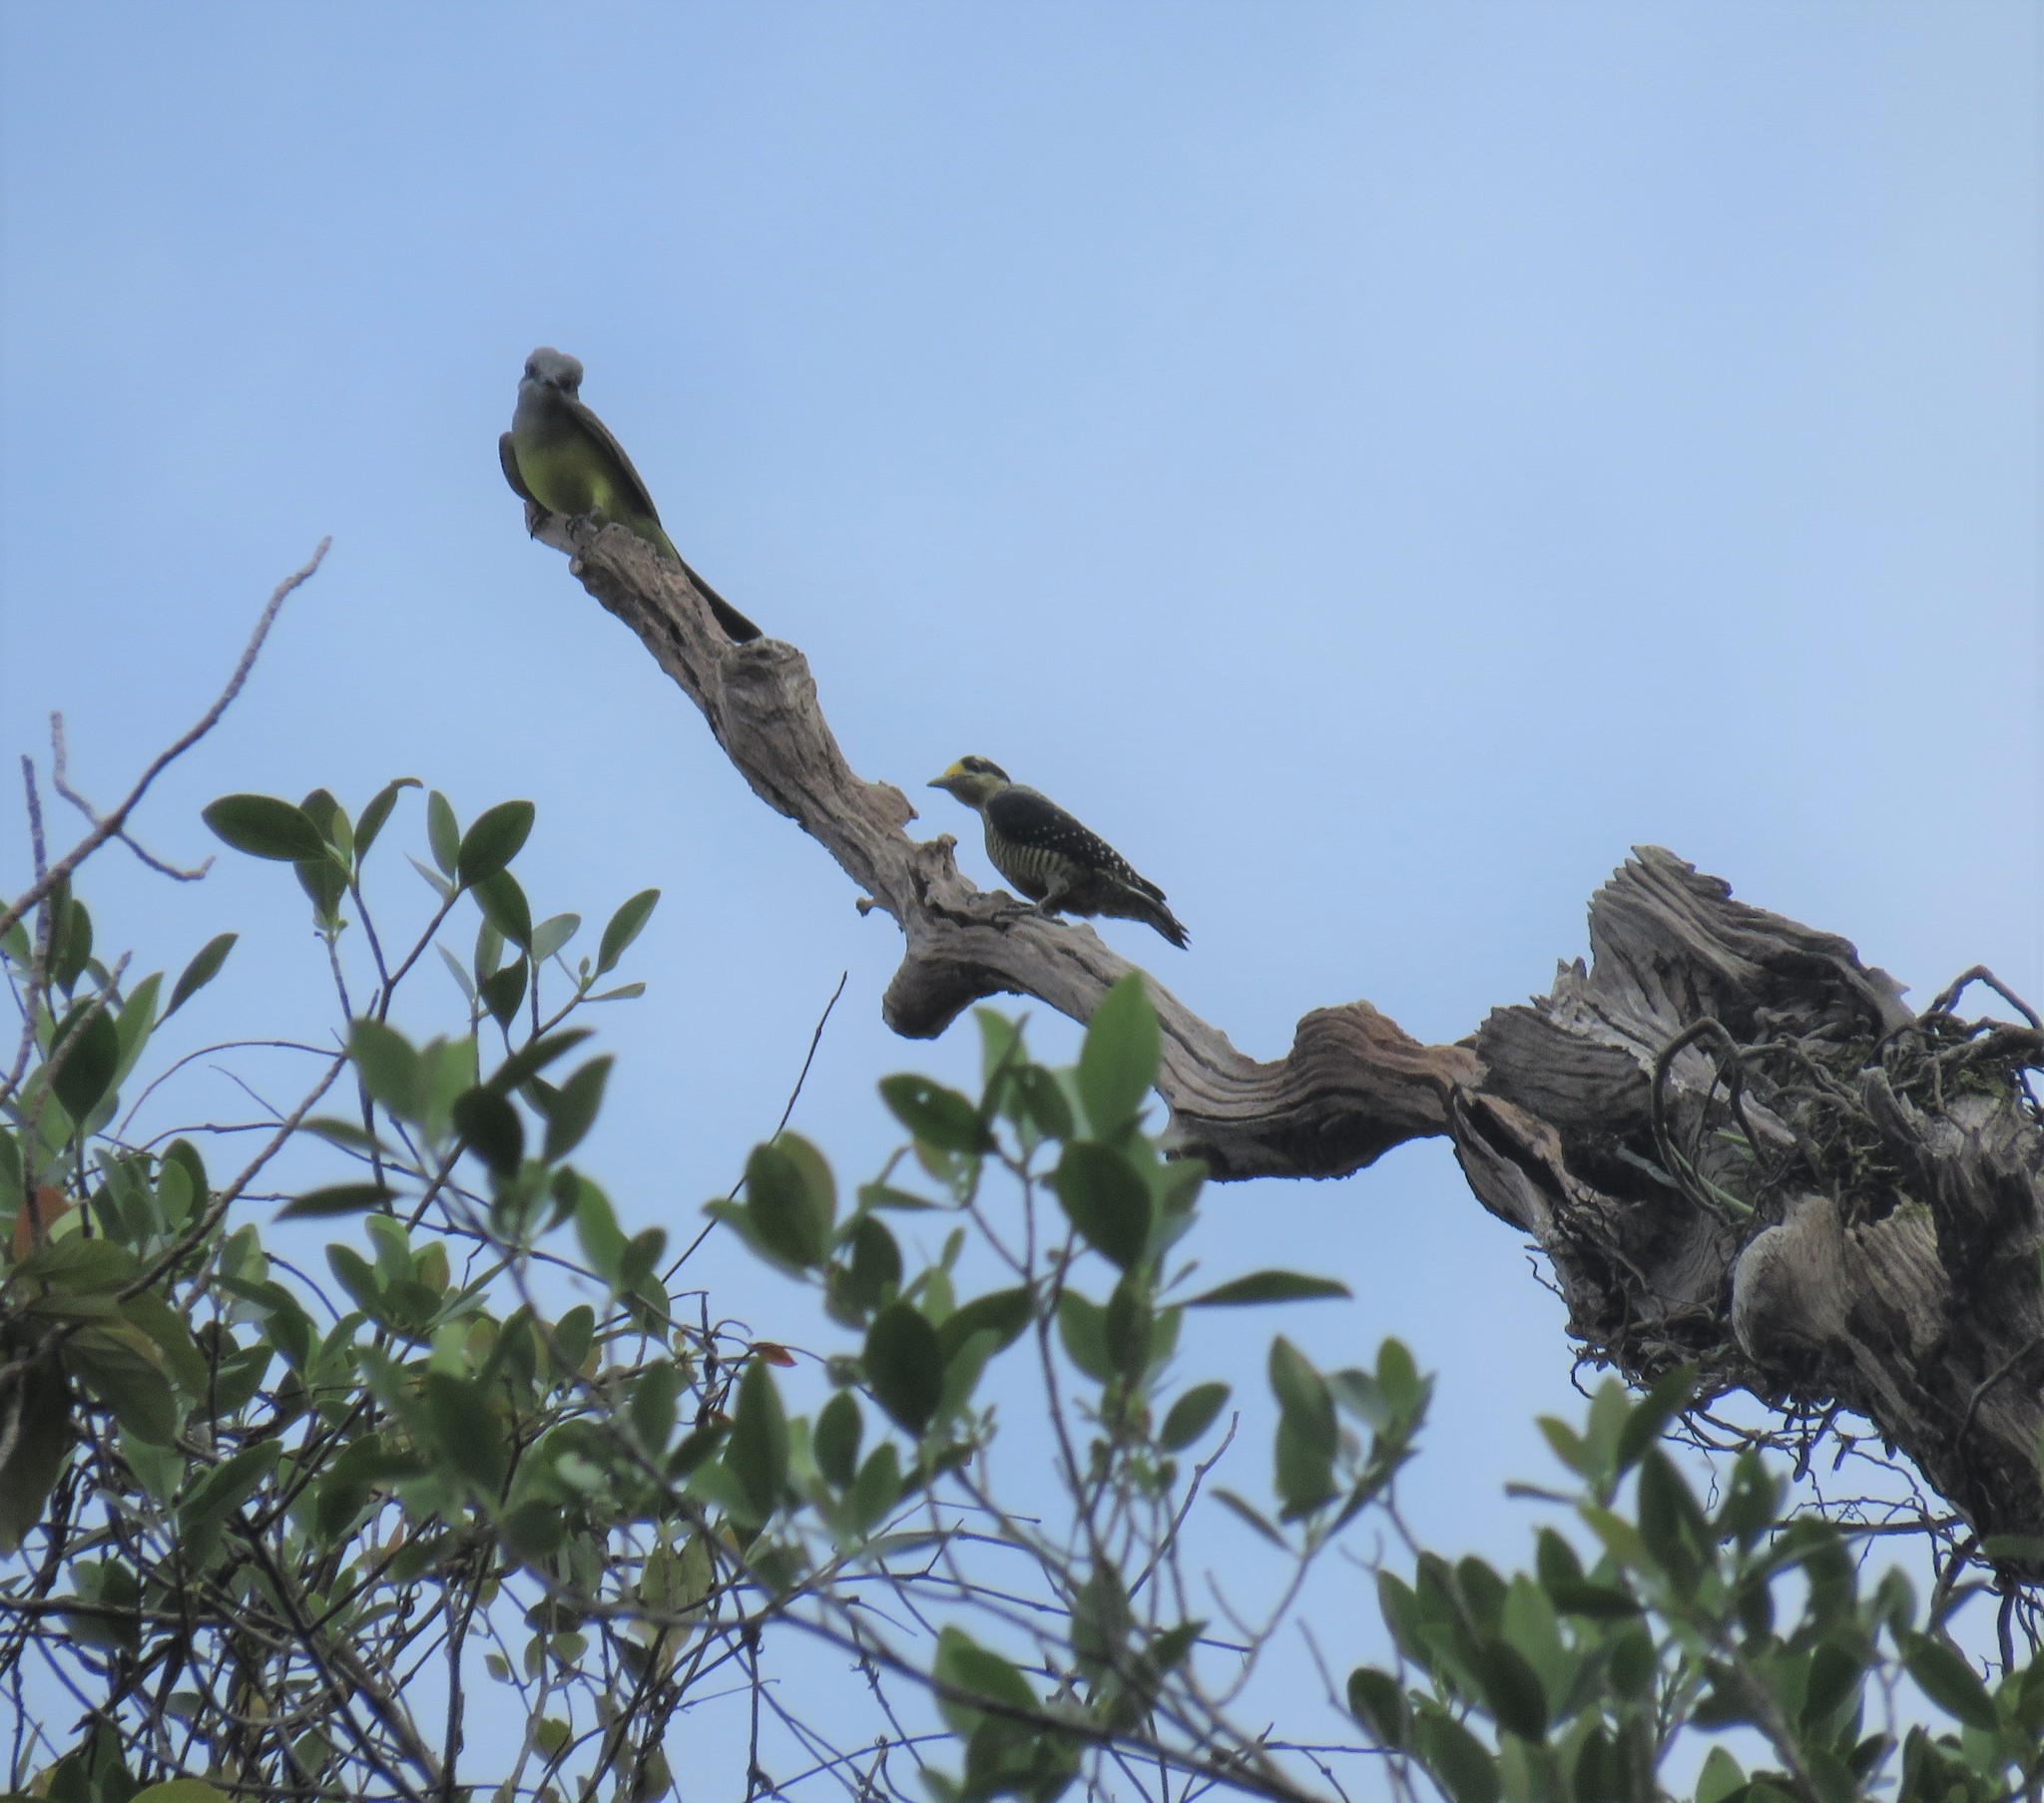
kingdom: Animalia
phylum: Chordata
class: Aves
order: Piciformes
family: Picidae
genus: Melanerpes
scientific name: Melanerpes pucherani
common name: Black-cheeked woodpecker
